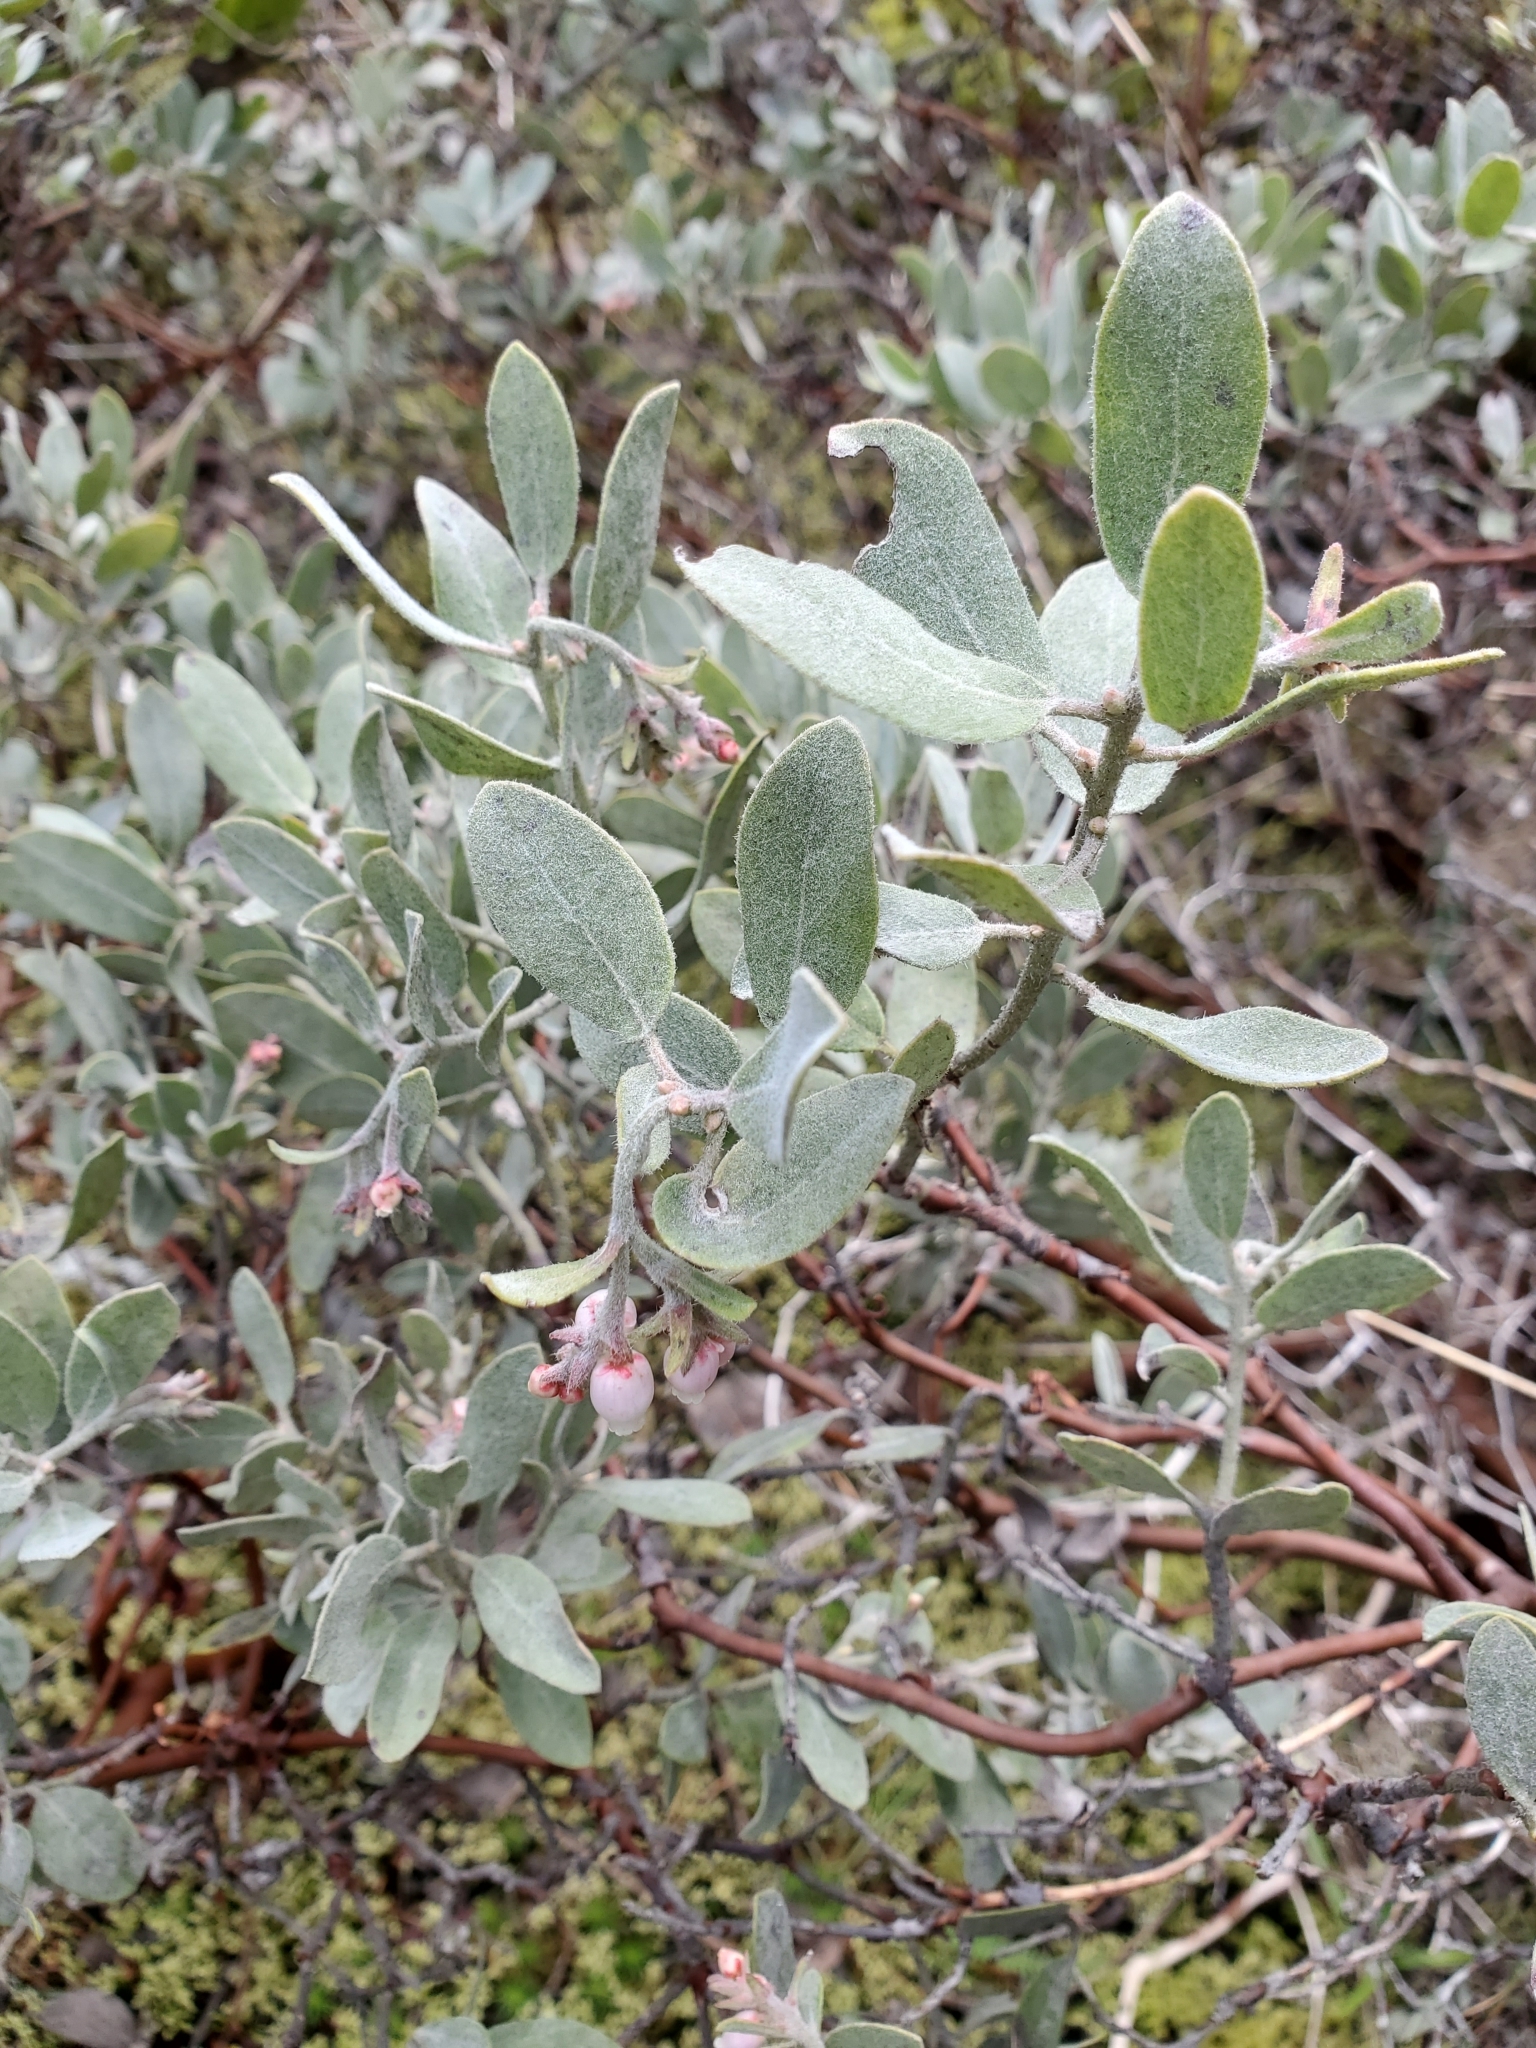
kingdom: Plantae
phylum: Tracheophyta
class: Magnoliopsida
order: Ericales
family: Ericaceae
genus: Arctostaphylos
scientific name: Arctostaphylos columbiana
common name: Bristly bearberry
